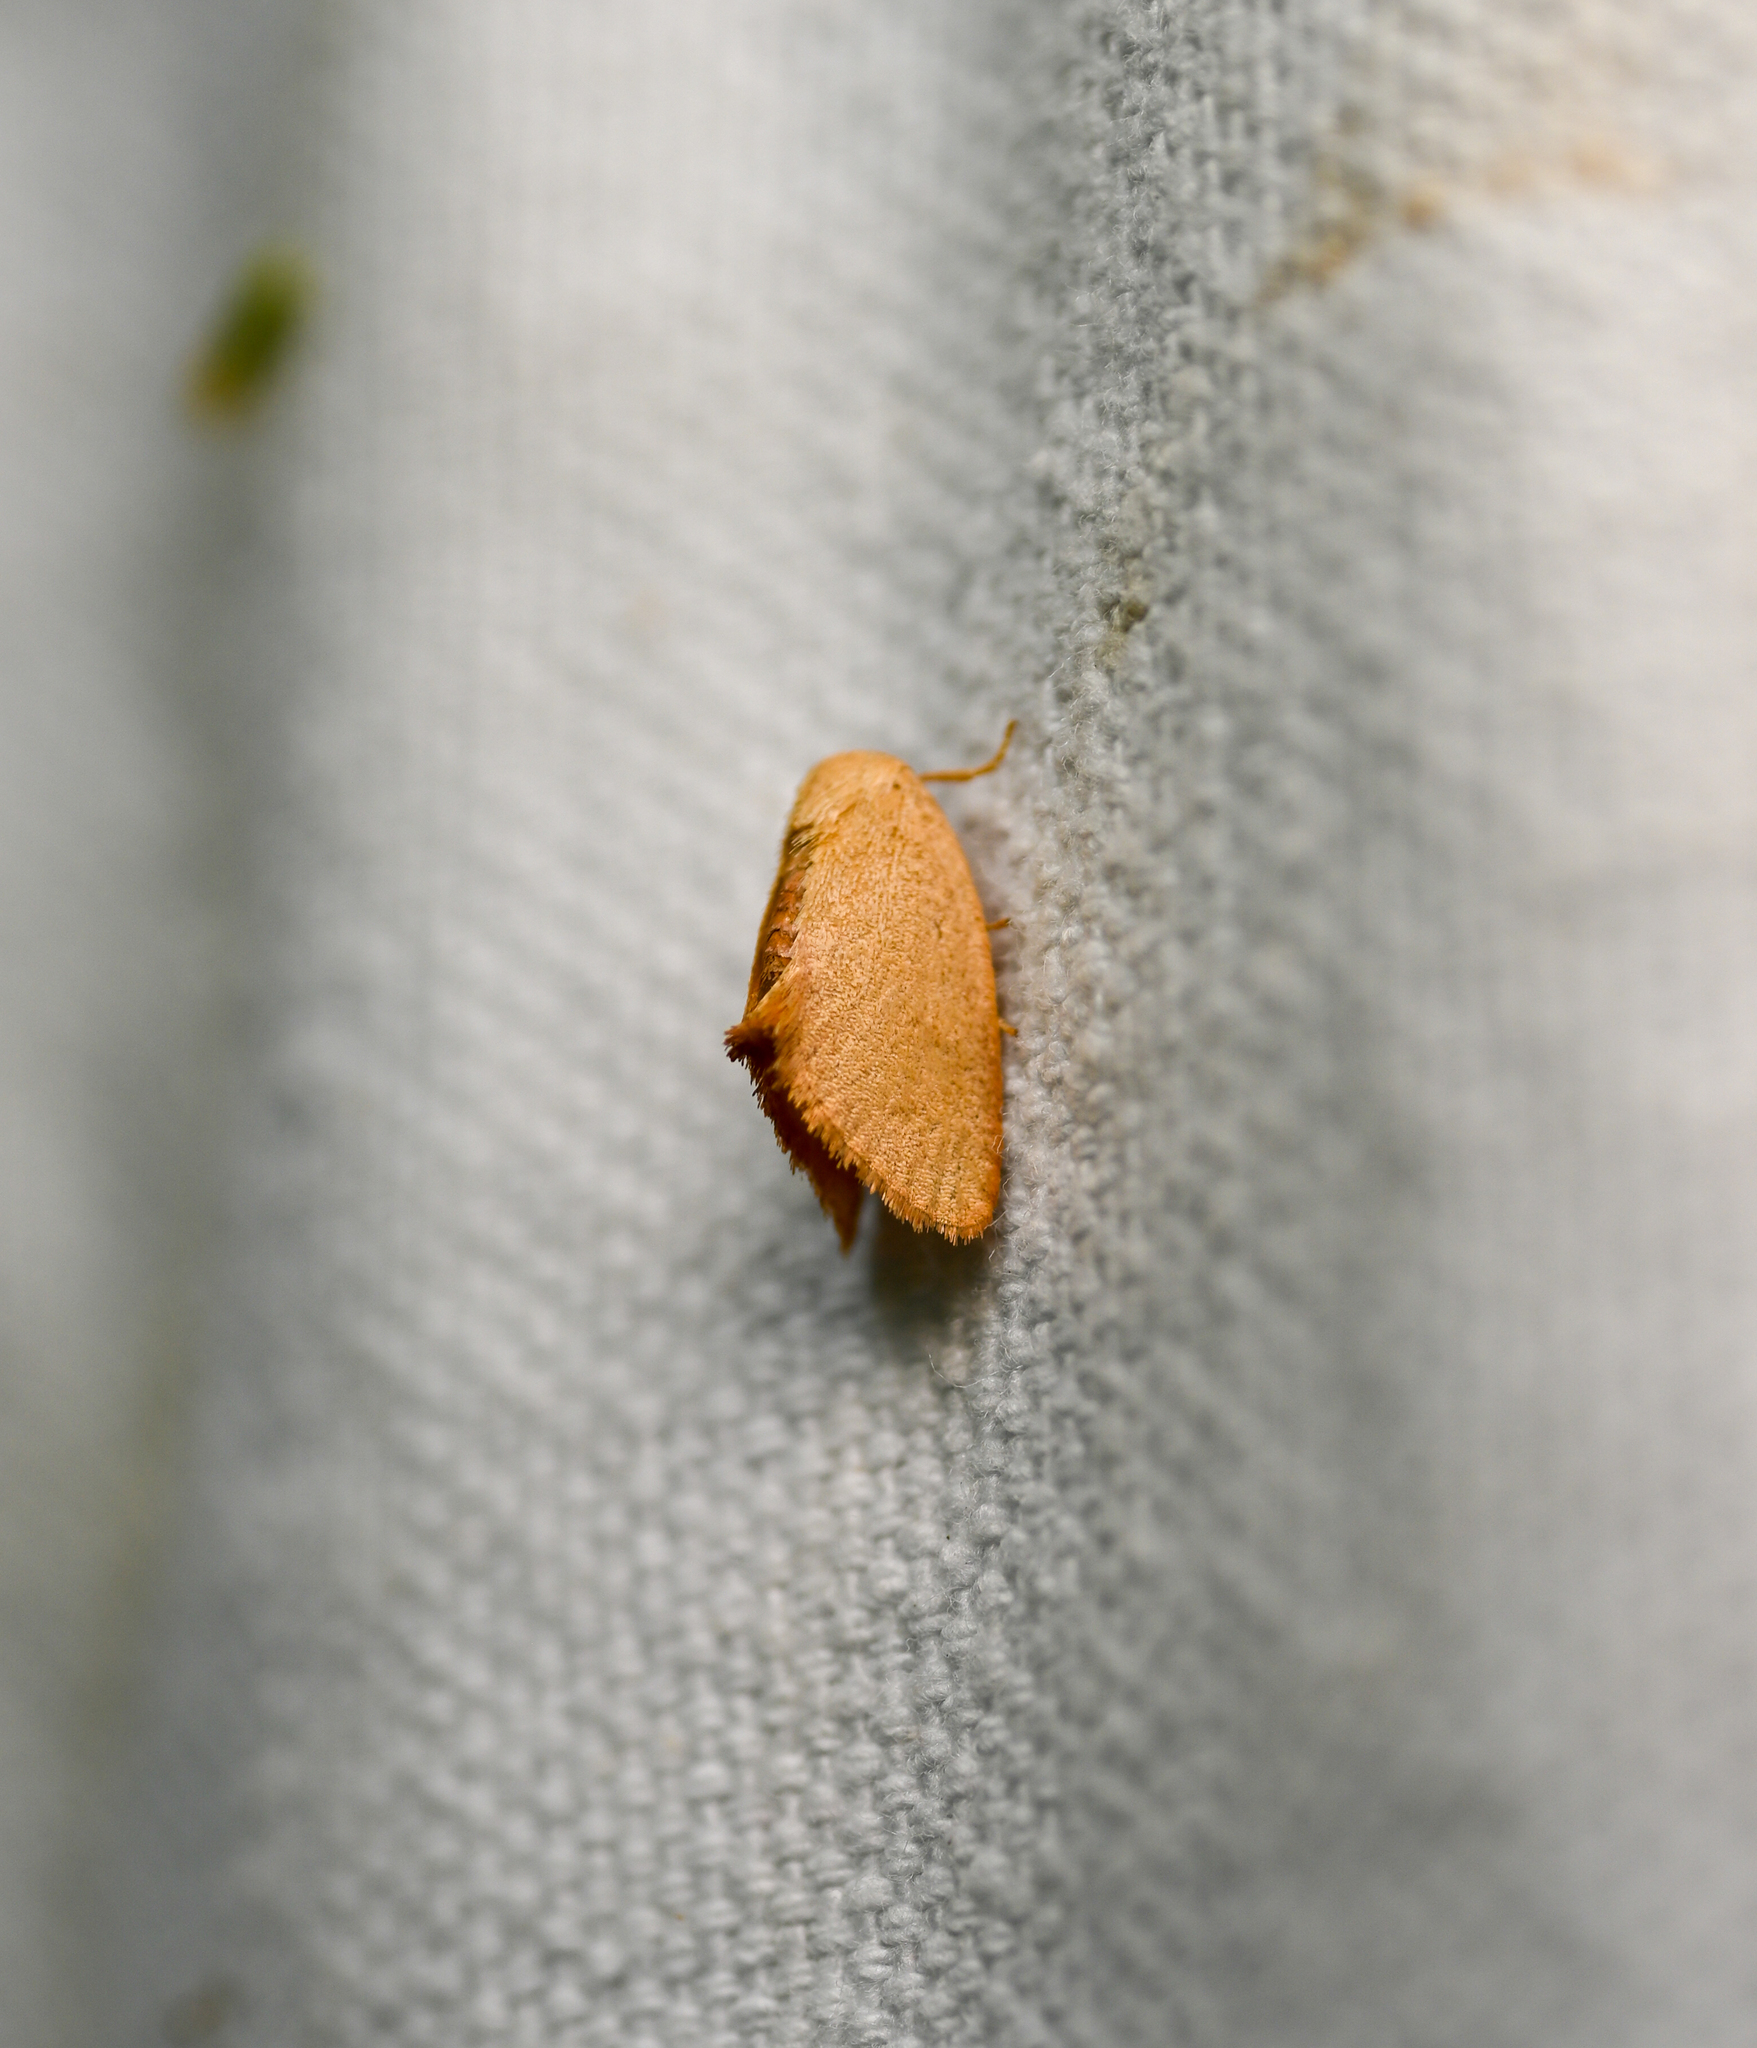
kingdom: Animalia
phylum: Arthropoda
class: Insecta
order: Lepidoptera
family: Limacodidae
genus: Heterogenea
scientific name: Heterogenea shurtleffi
